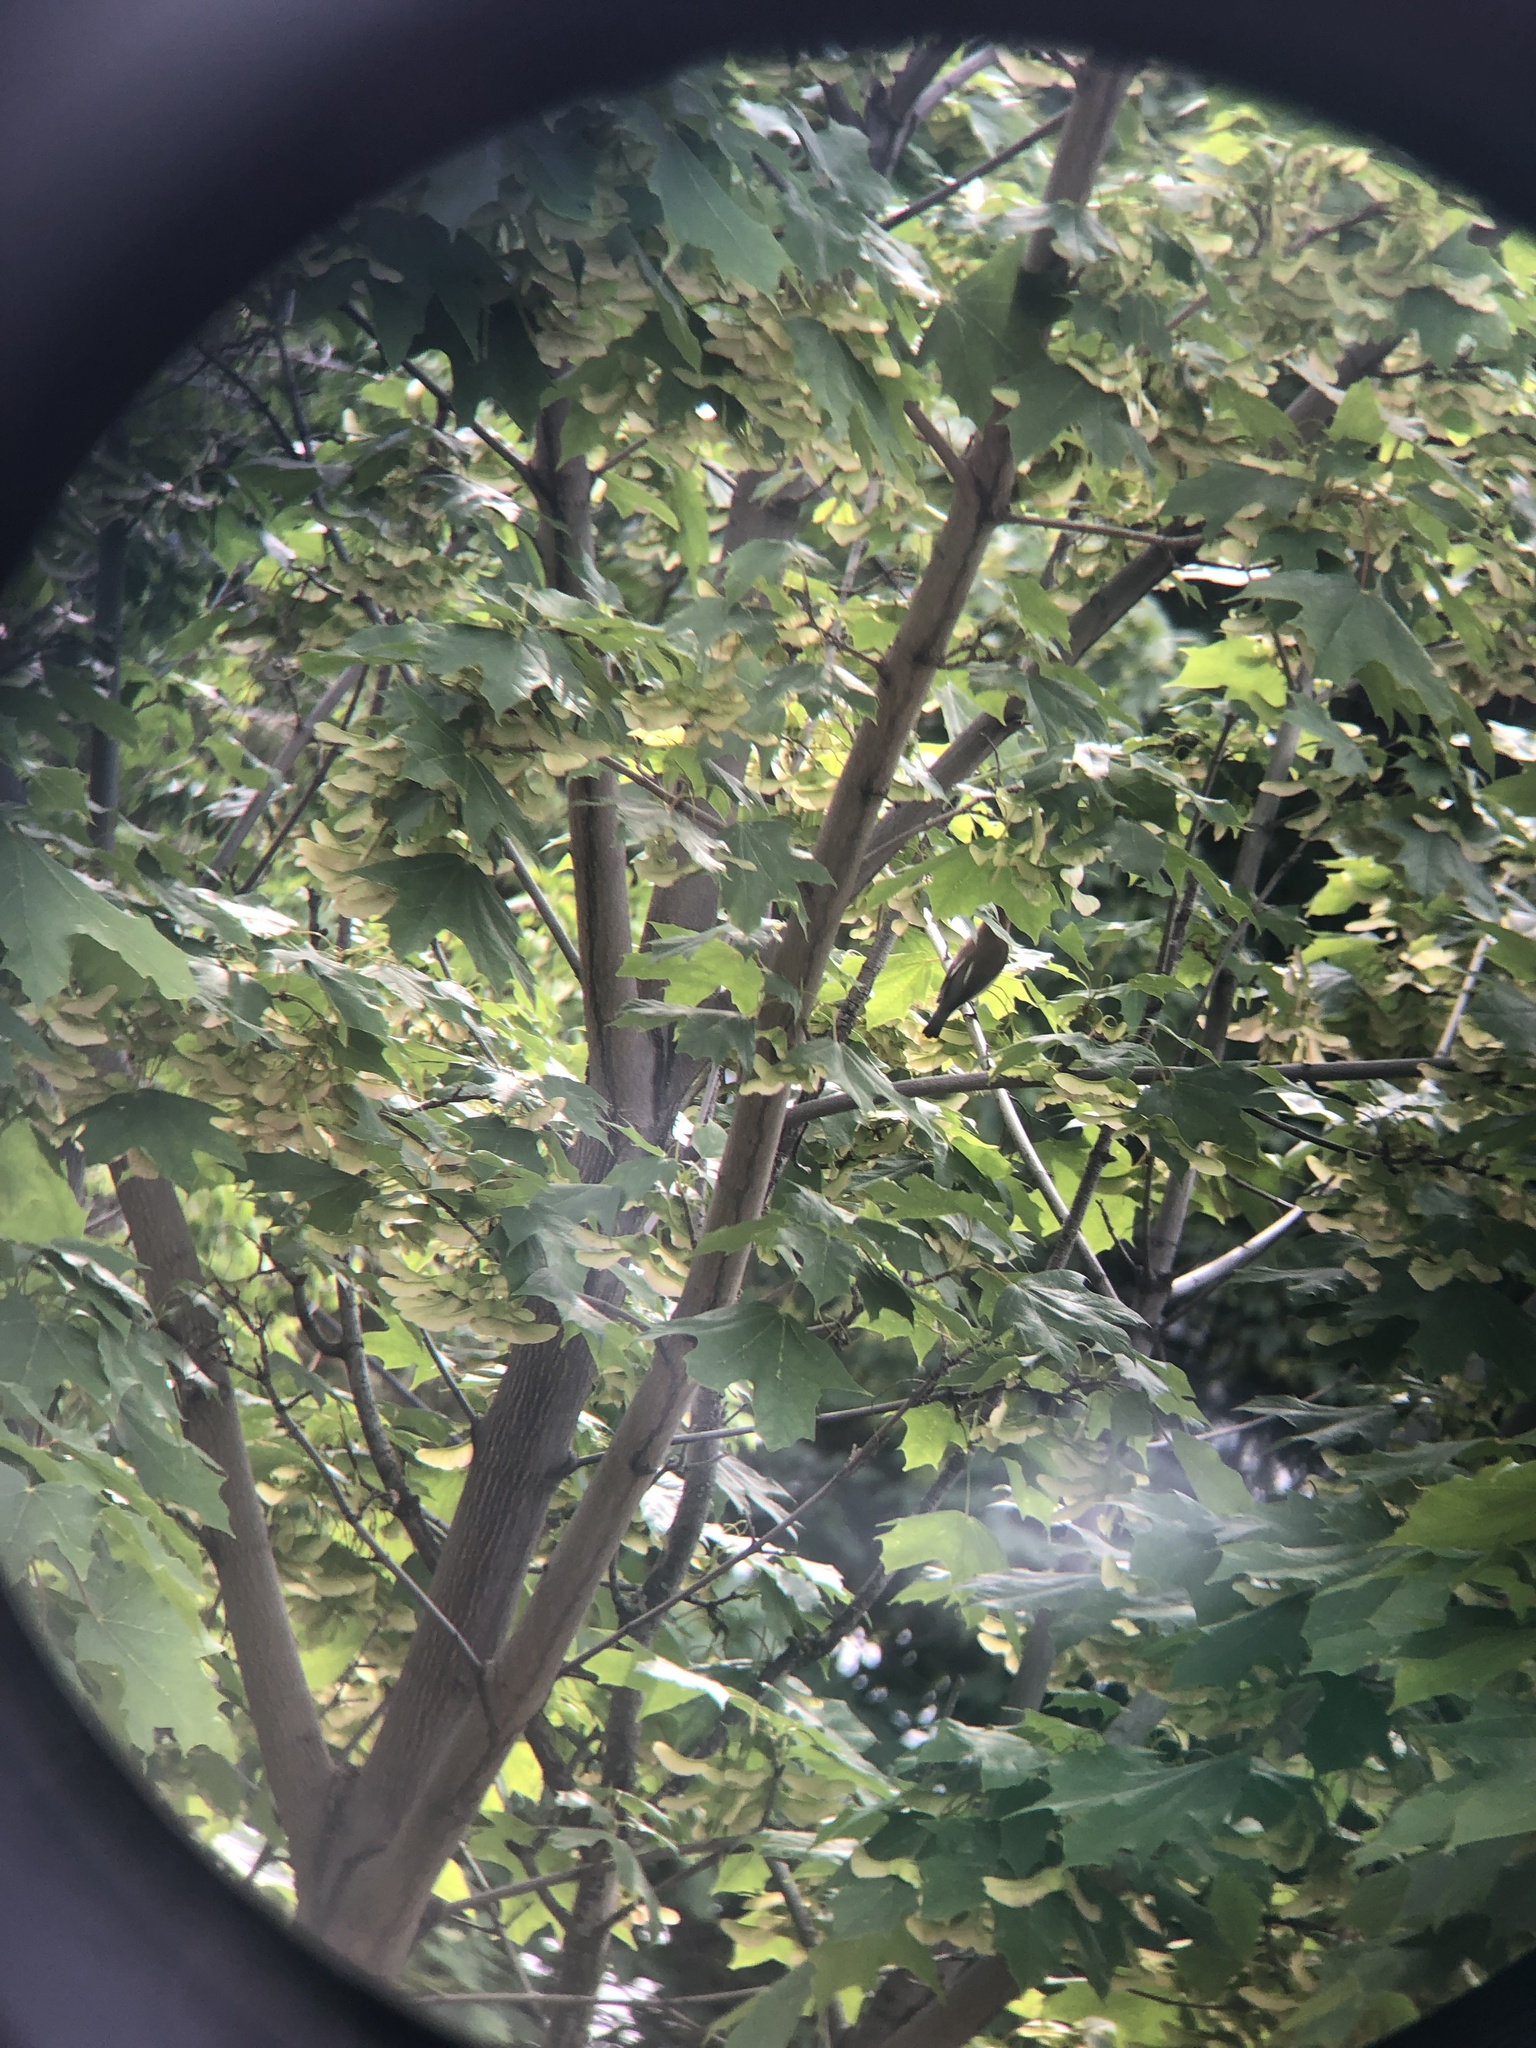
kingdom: Animalia
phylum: Chordata
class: Aves
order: Passeriformes
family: Bombycillidae
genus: Bombycilla
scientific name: Bombycilla cedrorum
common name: Cedar waxwing
